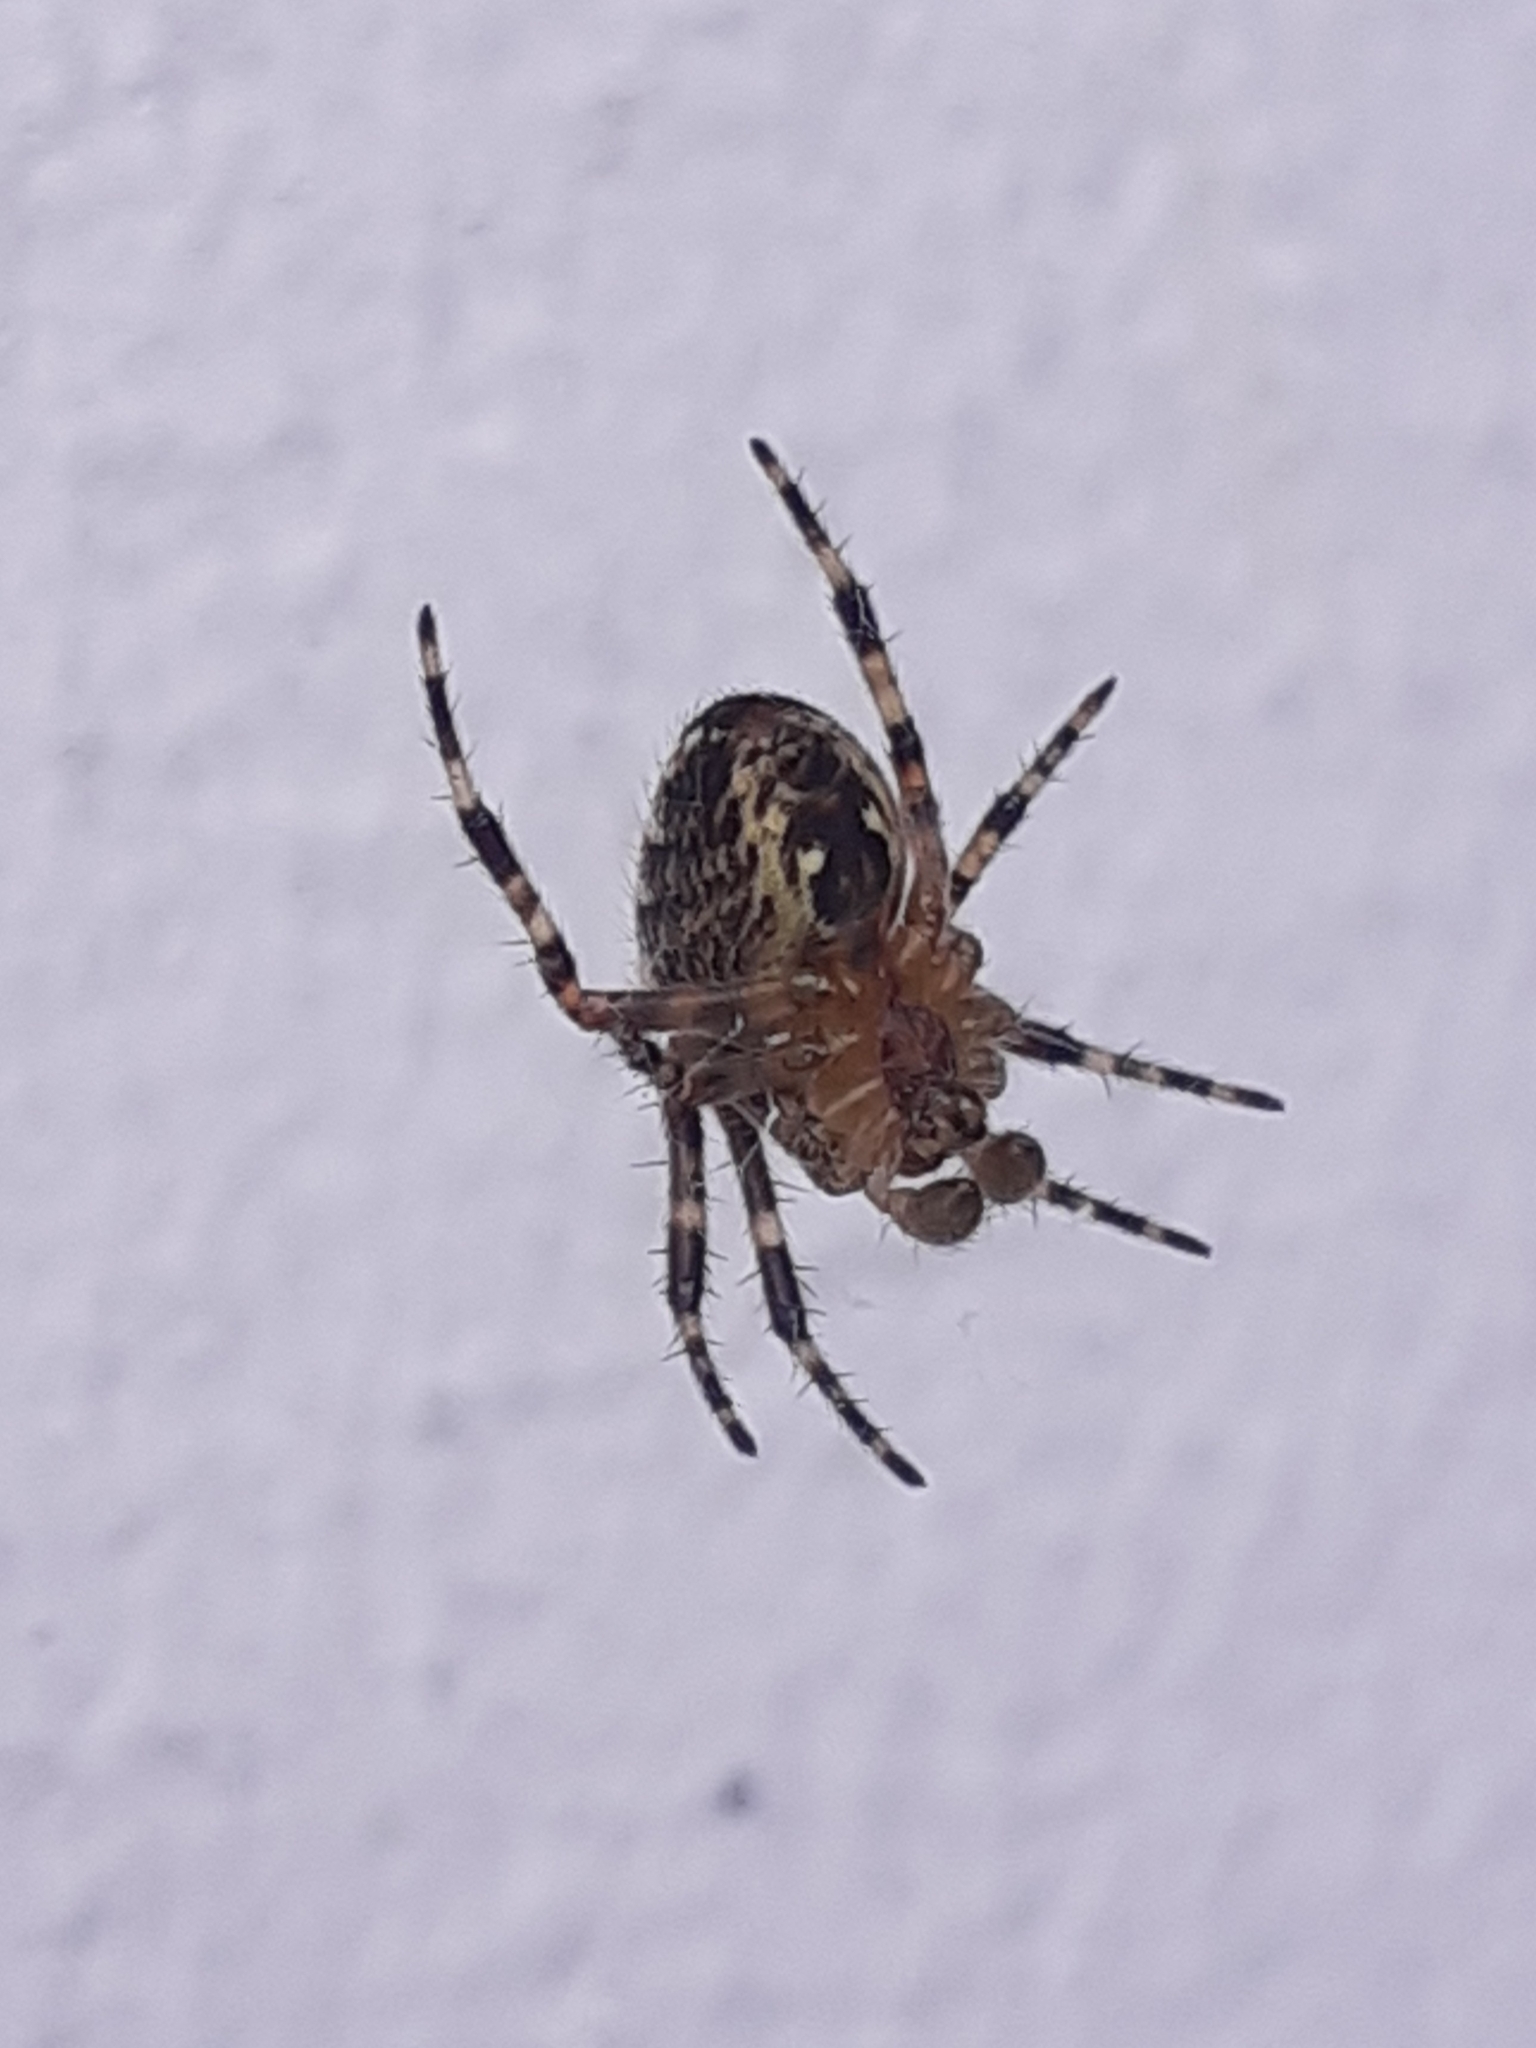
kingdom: Animalia
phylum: Arthropoda
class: Arachnida
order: Araneae
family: Araneidae
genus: Araneus
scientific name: Araneus diadematus
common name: Cross orbweaver
